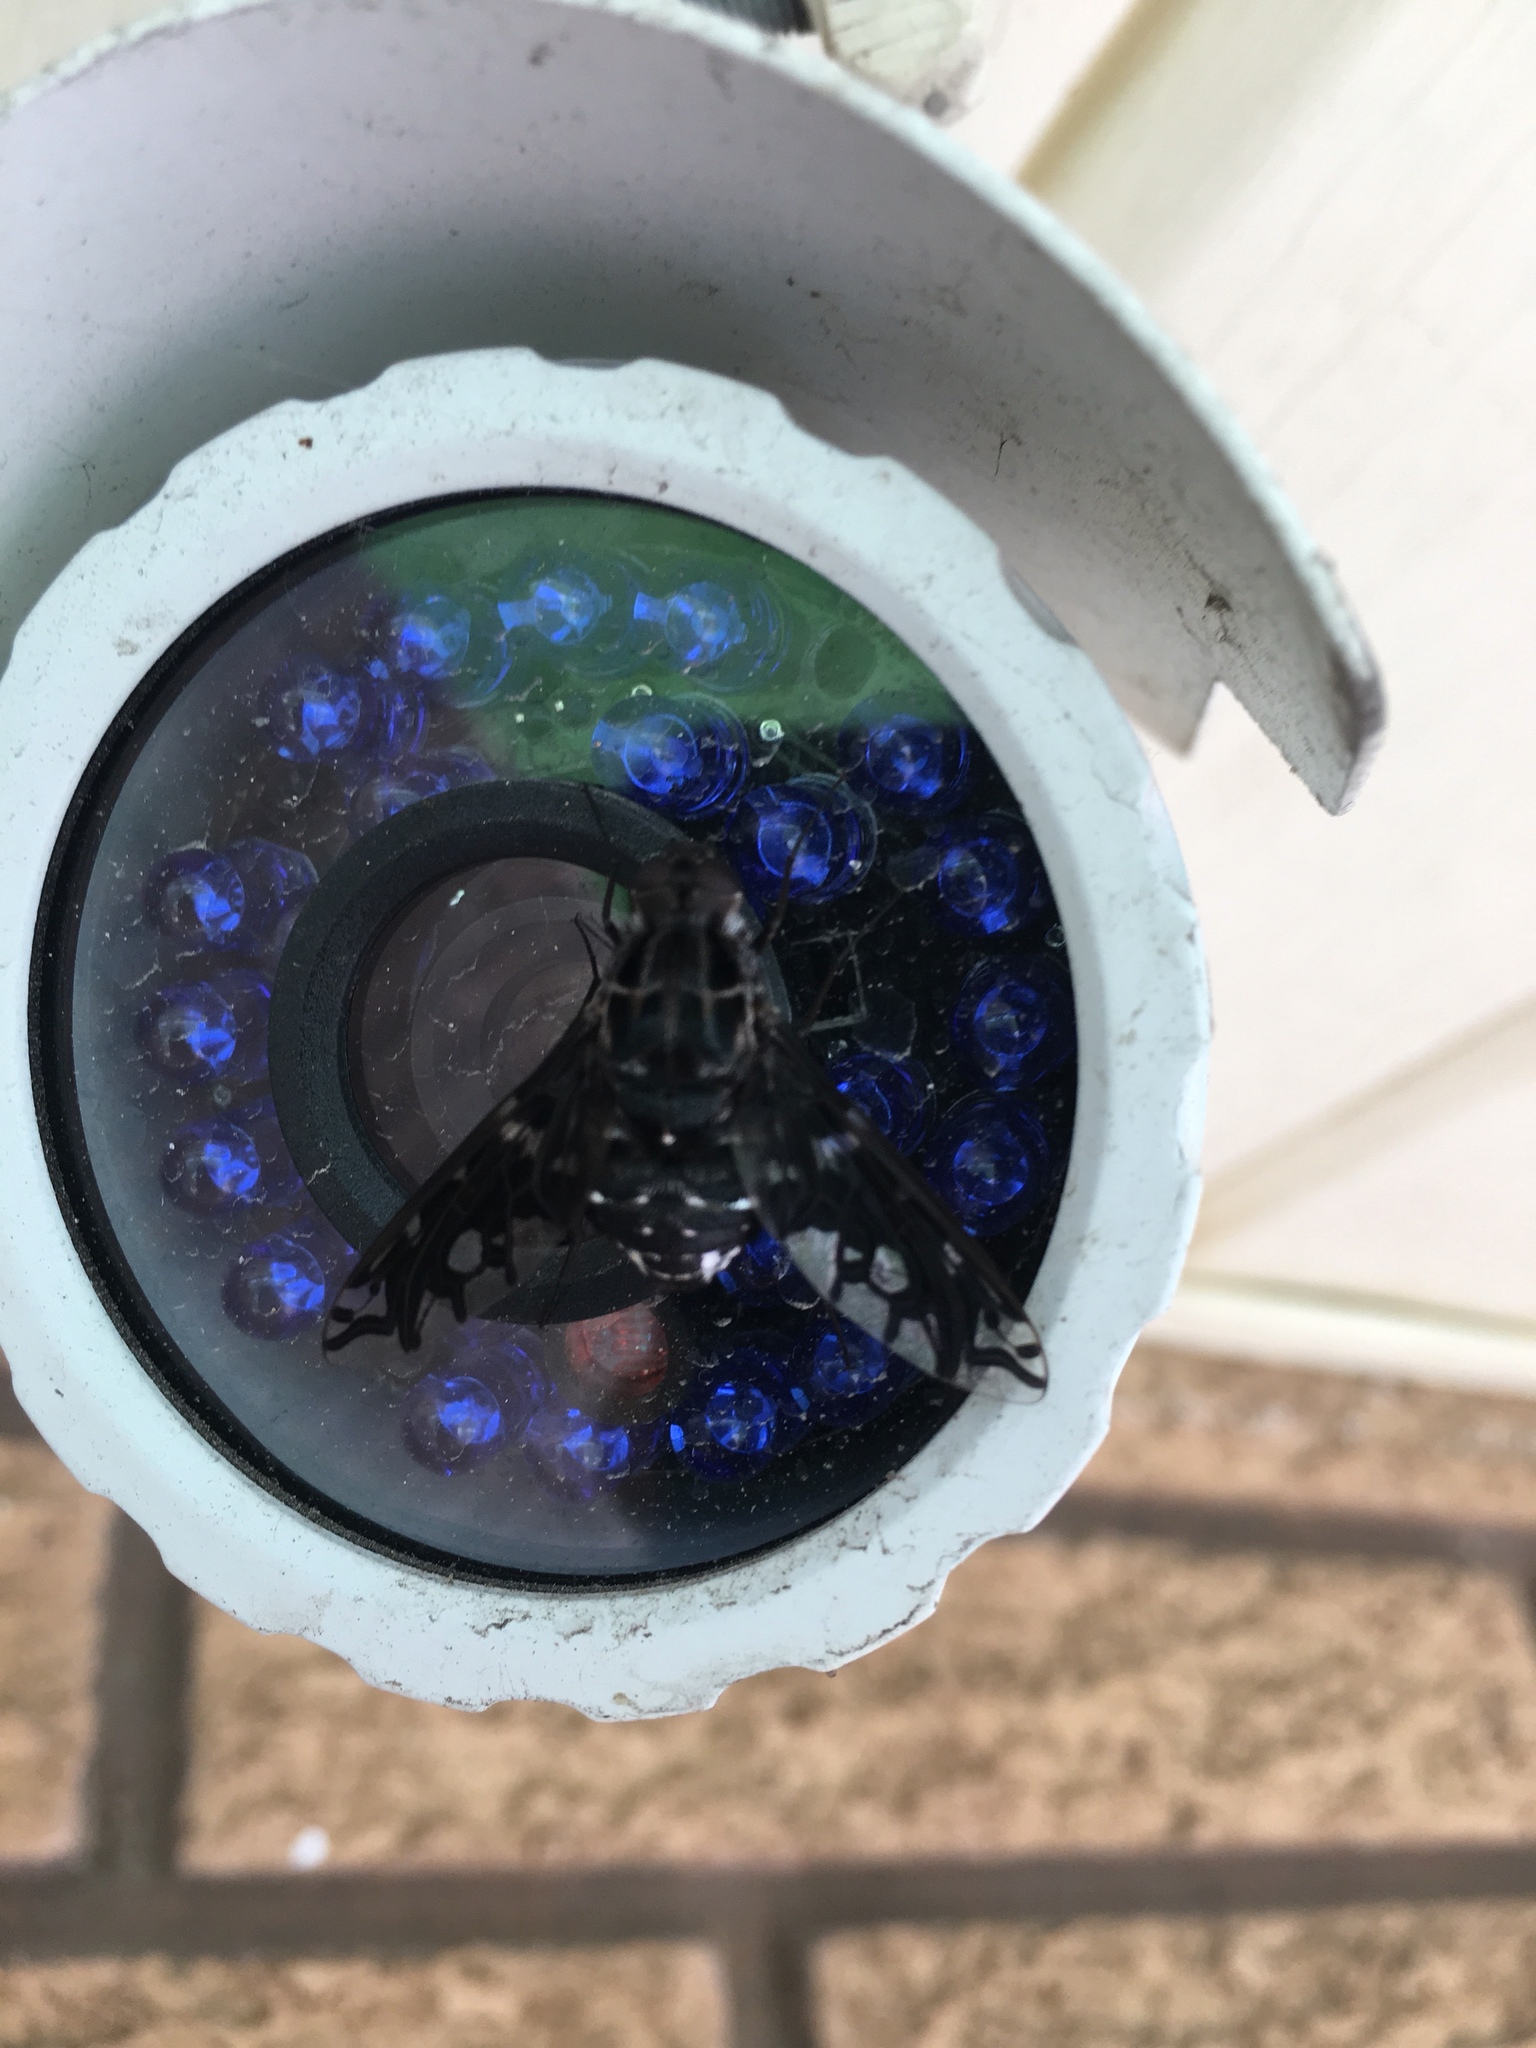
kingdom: Animalia
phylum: Arthropoda
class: Insecta
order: Diptera
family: Bombyliidae
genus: Xenox
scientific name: Xenox tigrinus
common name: Tiger bee fly
